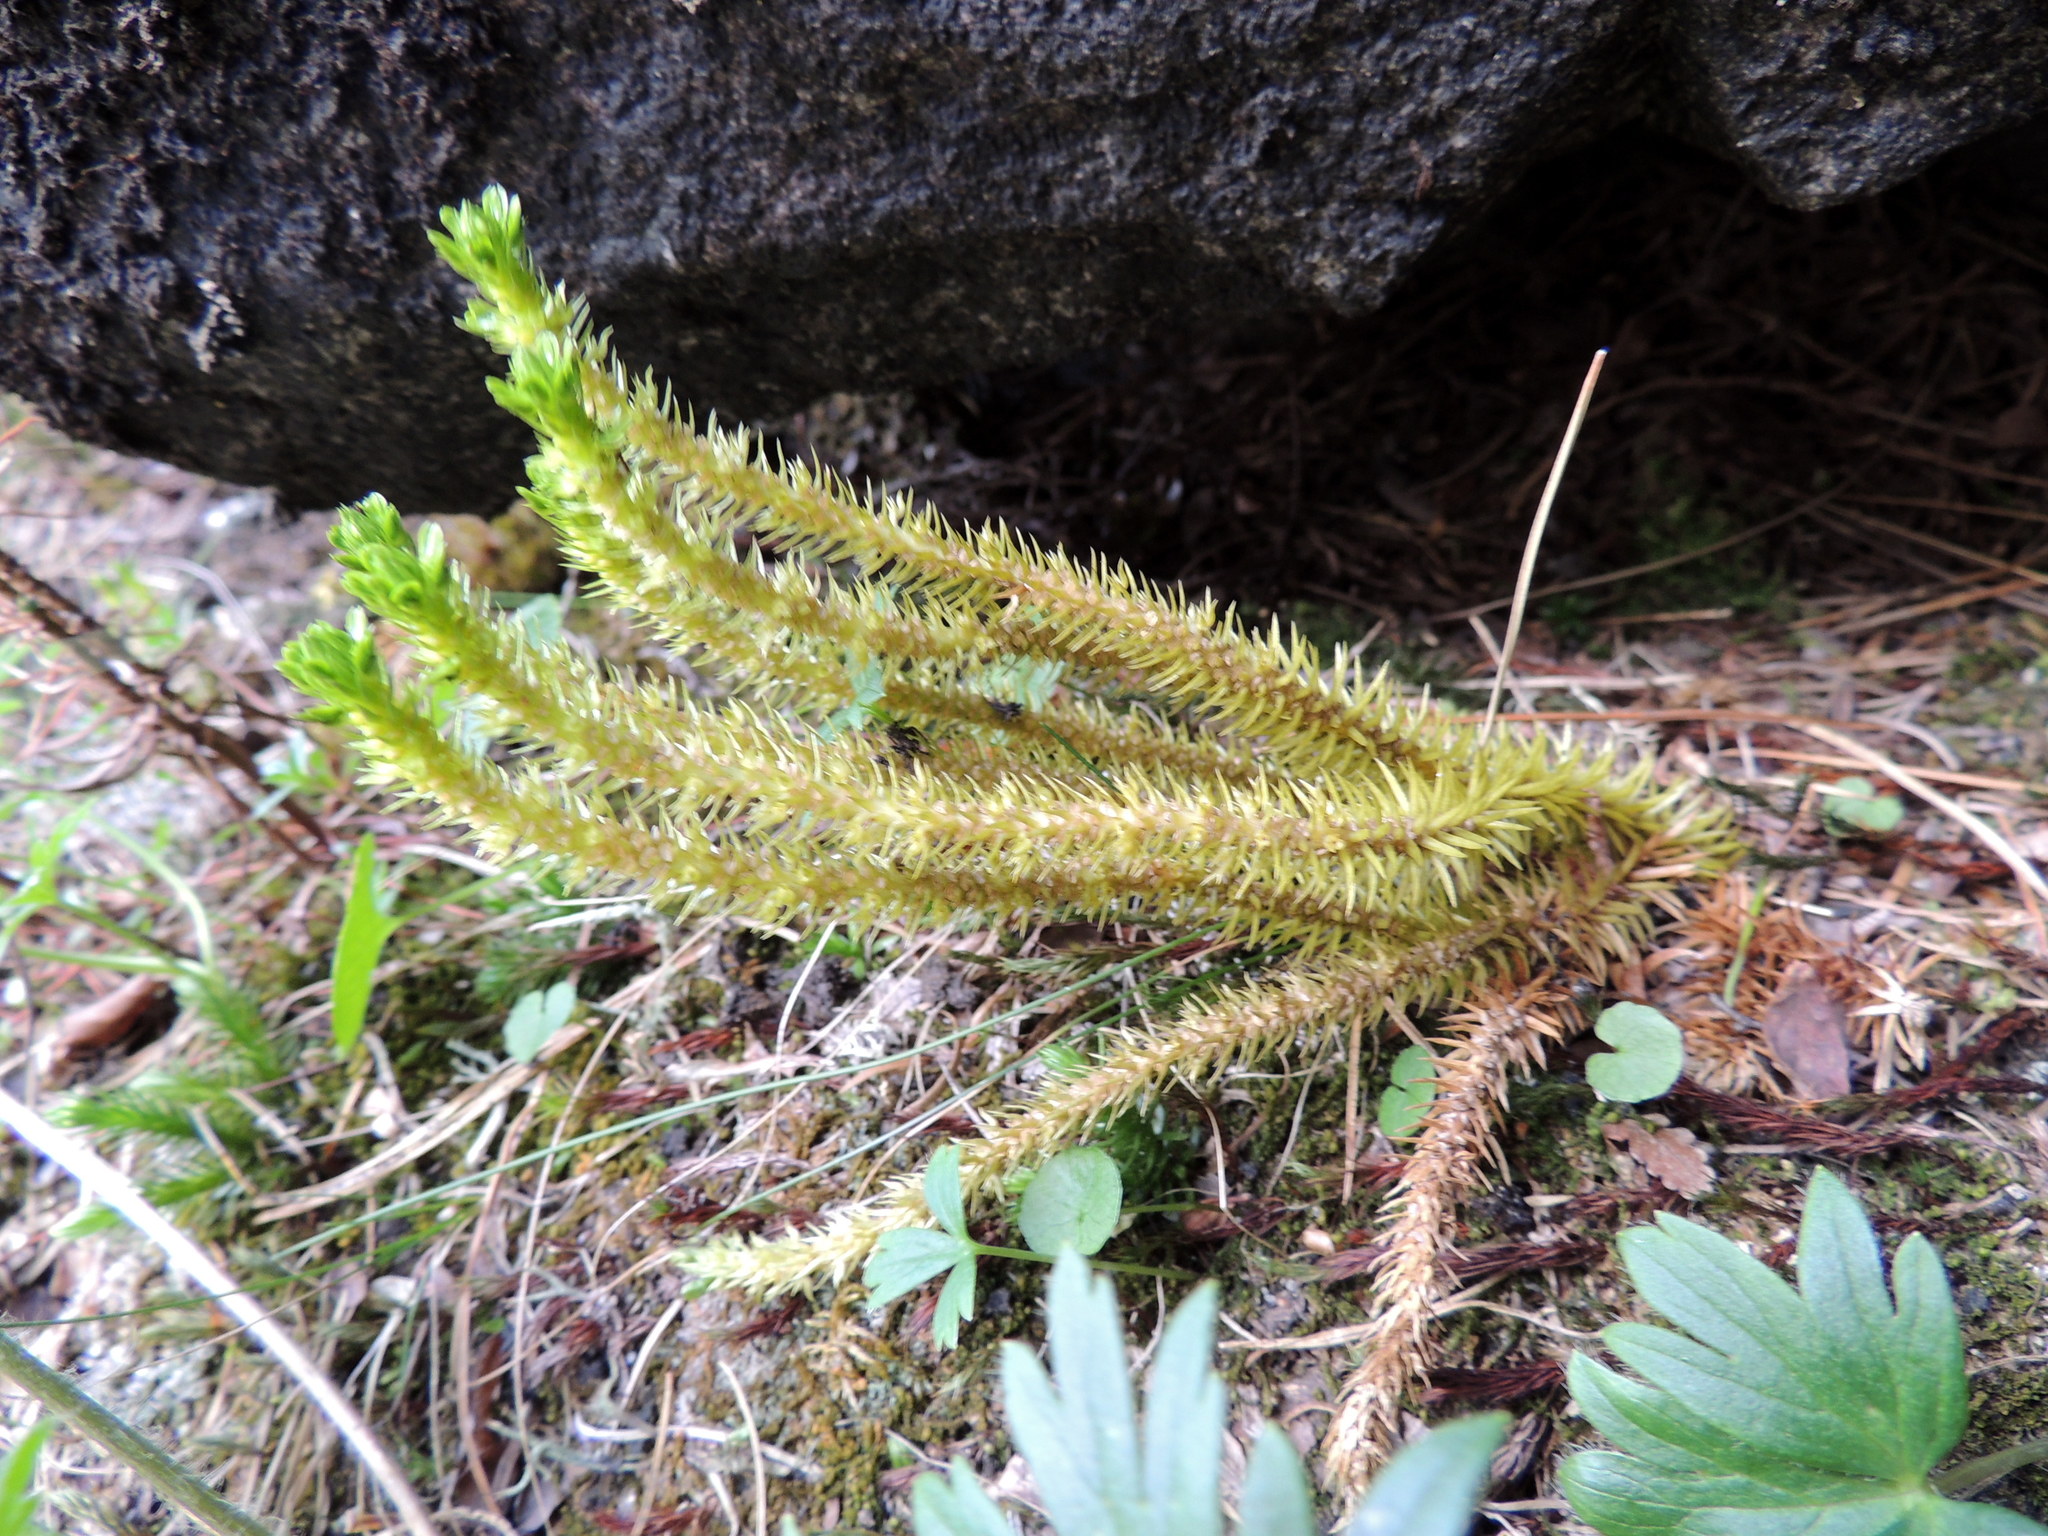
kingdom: Plantae
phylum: Tracheophyta
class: Lycopodiopsida
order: Lycopodiales
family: Lycopodiaceae
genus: Huperzia
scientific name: Huperzia selago
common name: Northern firmoss
